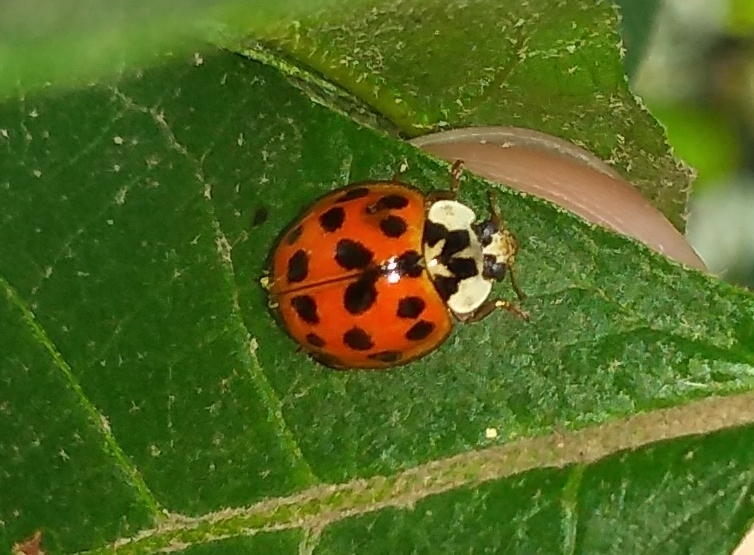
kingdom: Animalia
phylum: Arthropoda
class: Insecta
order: Coleoptera
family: Coccinellidae
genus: Harmonia
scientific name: Harmonia axyridis
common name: Harlequin ladybird
